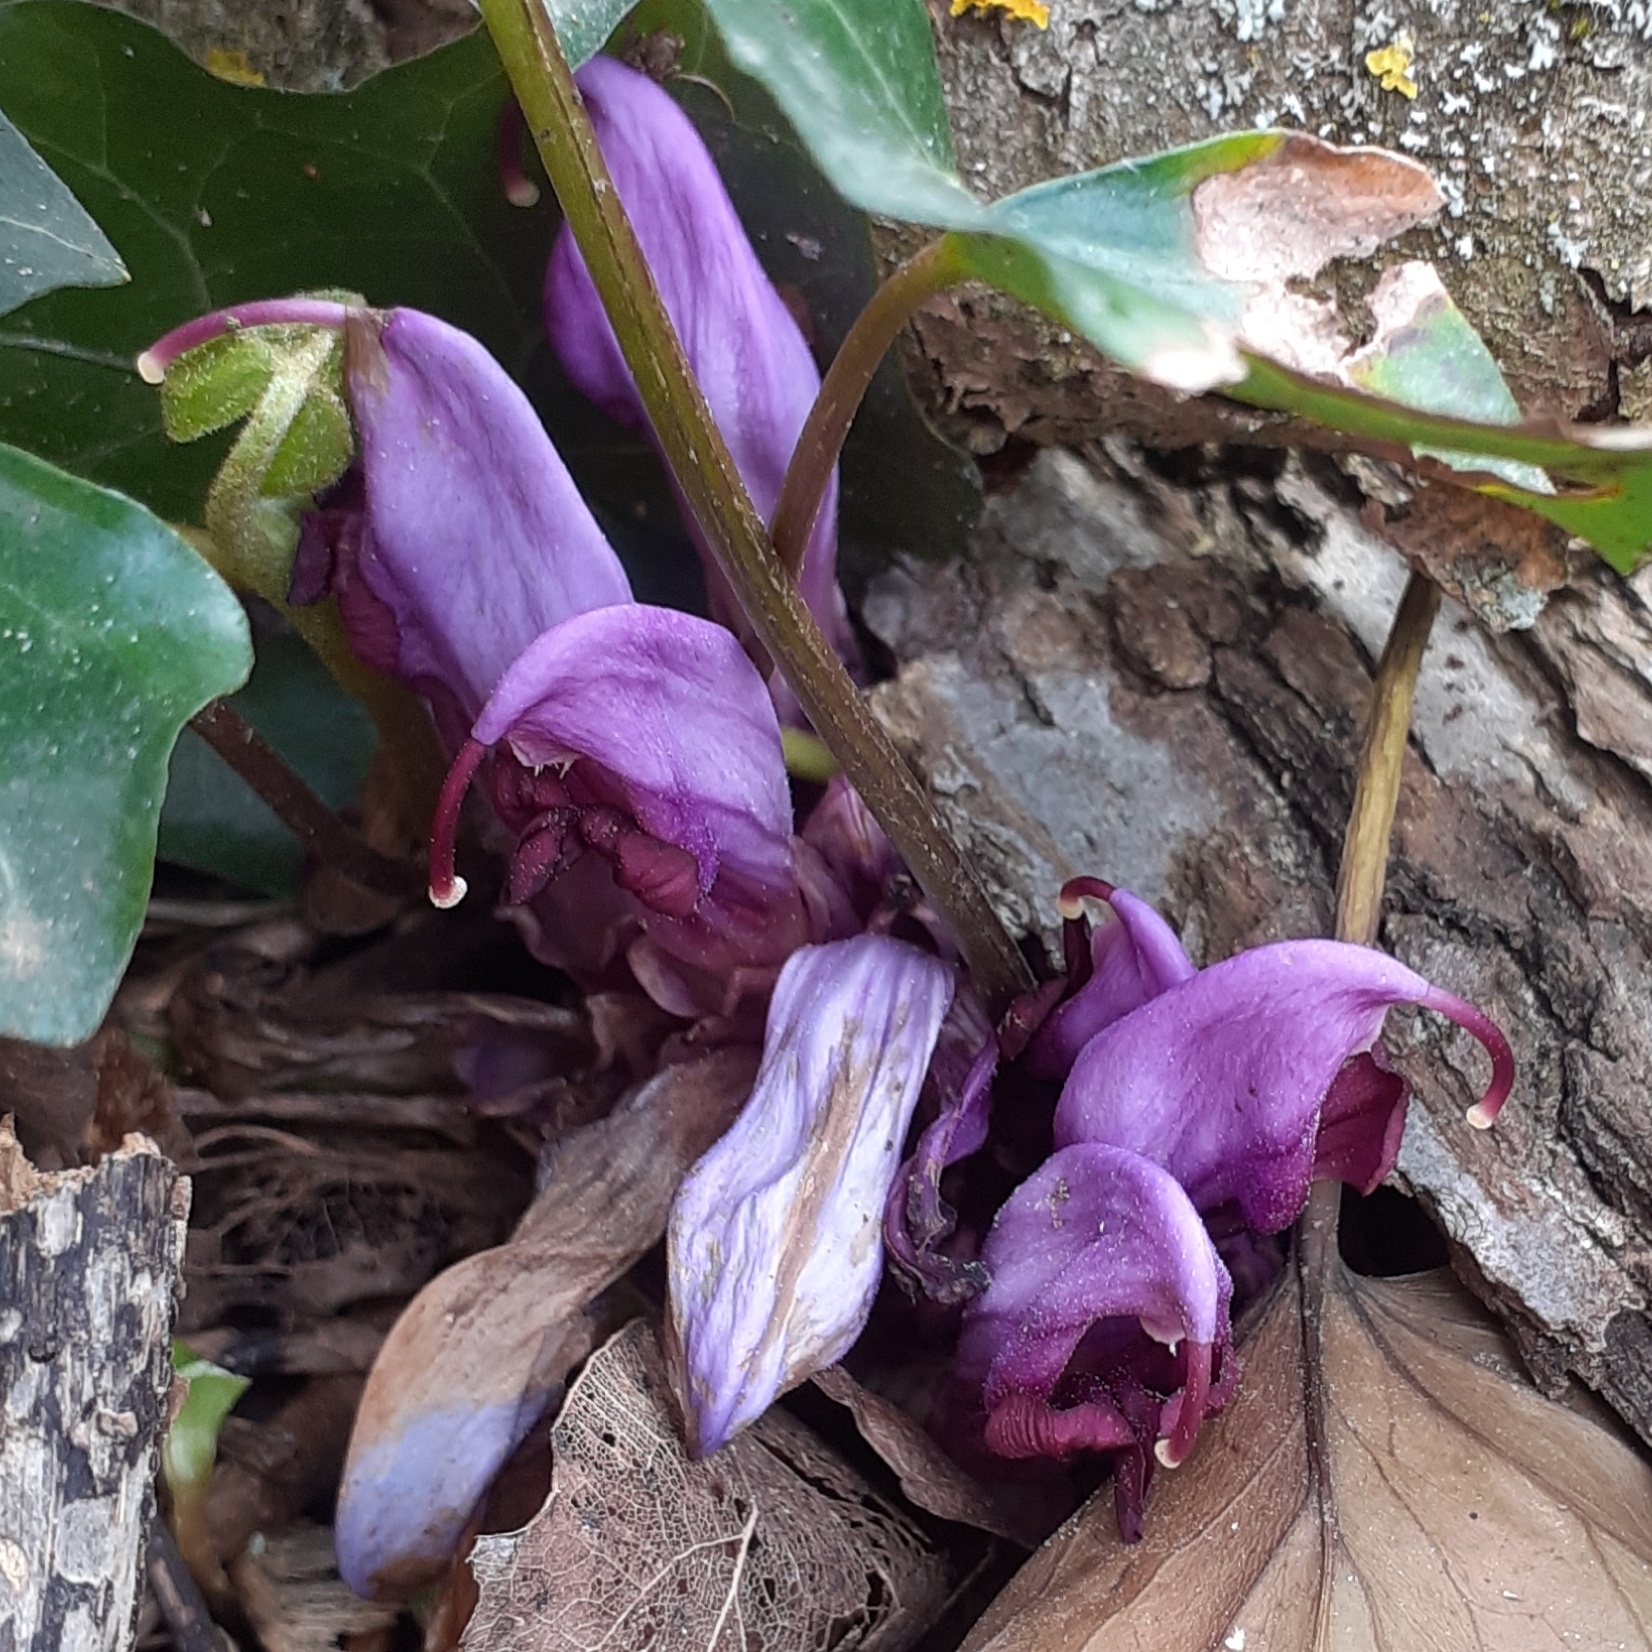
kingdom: Plantae
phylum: Tracheophyta
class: Magnoliopsida
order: Lamiales
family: Orobanchaceae
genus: Lathraea
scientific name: Lathraea clandestina
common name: Purple toothwort
